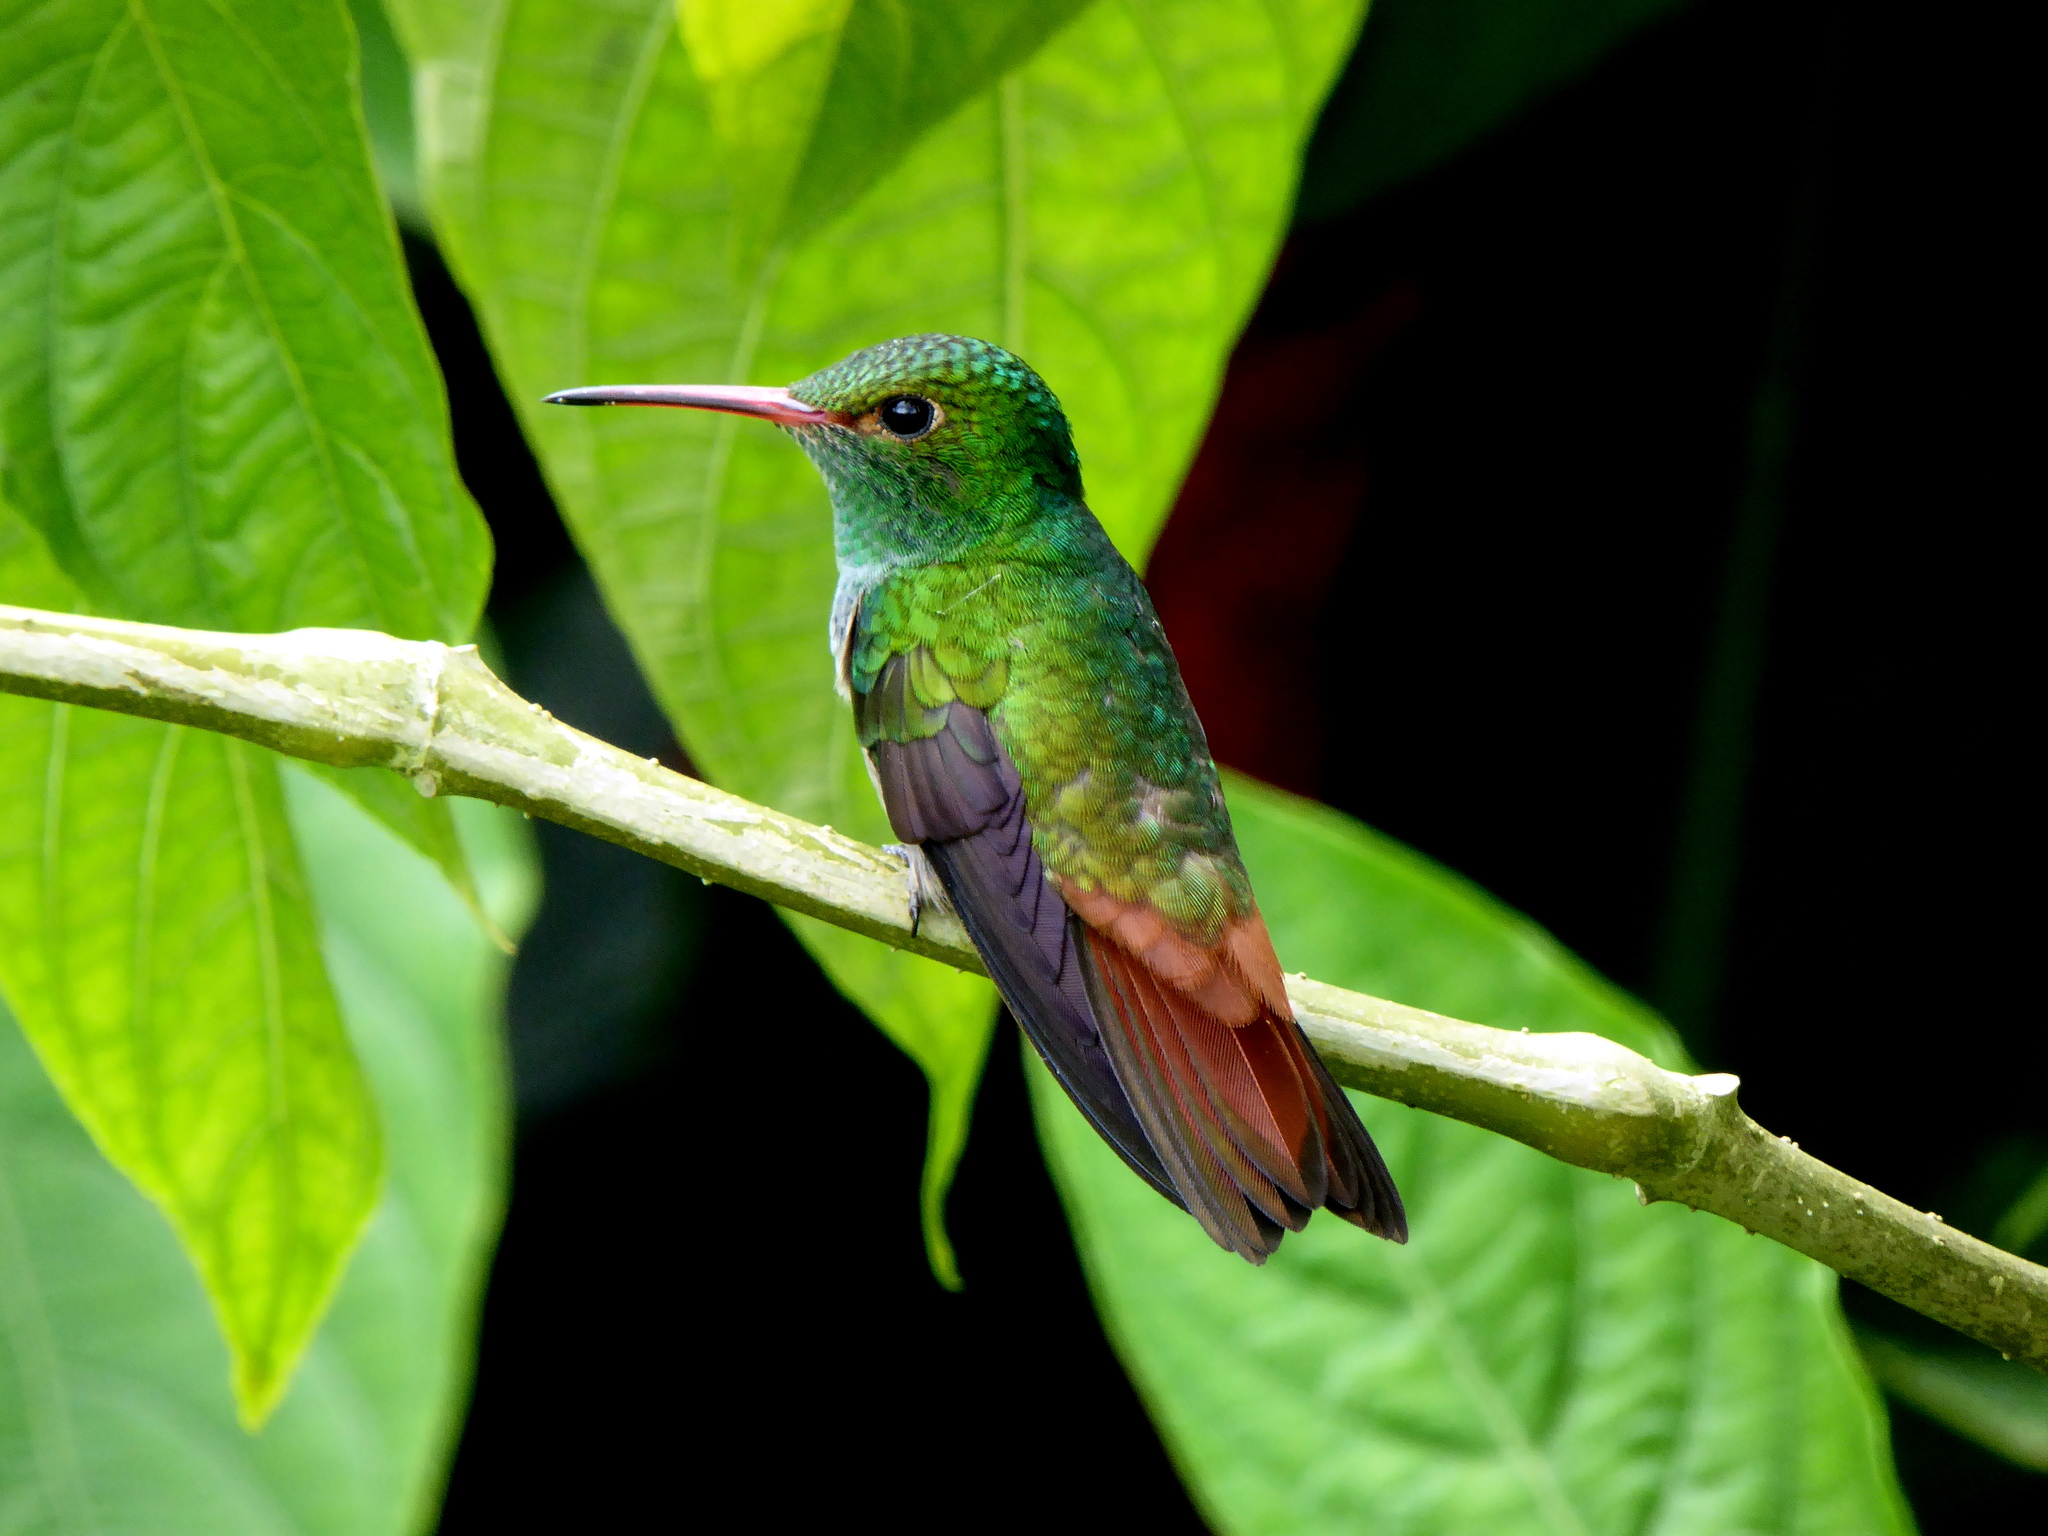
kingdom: Animalia
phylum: Chordata
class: Aves
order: Apodiformes
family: Trochilidae
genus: Amazilia
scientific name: Amazilia tzacatl
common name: Rufous-tailed hummingbird
